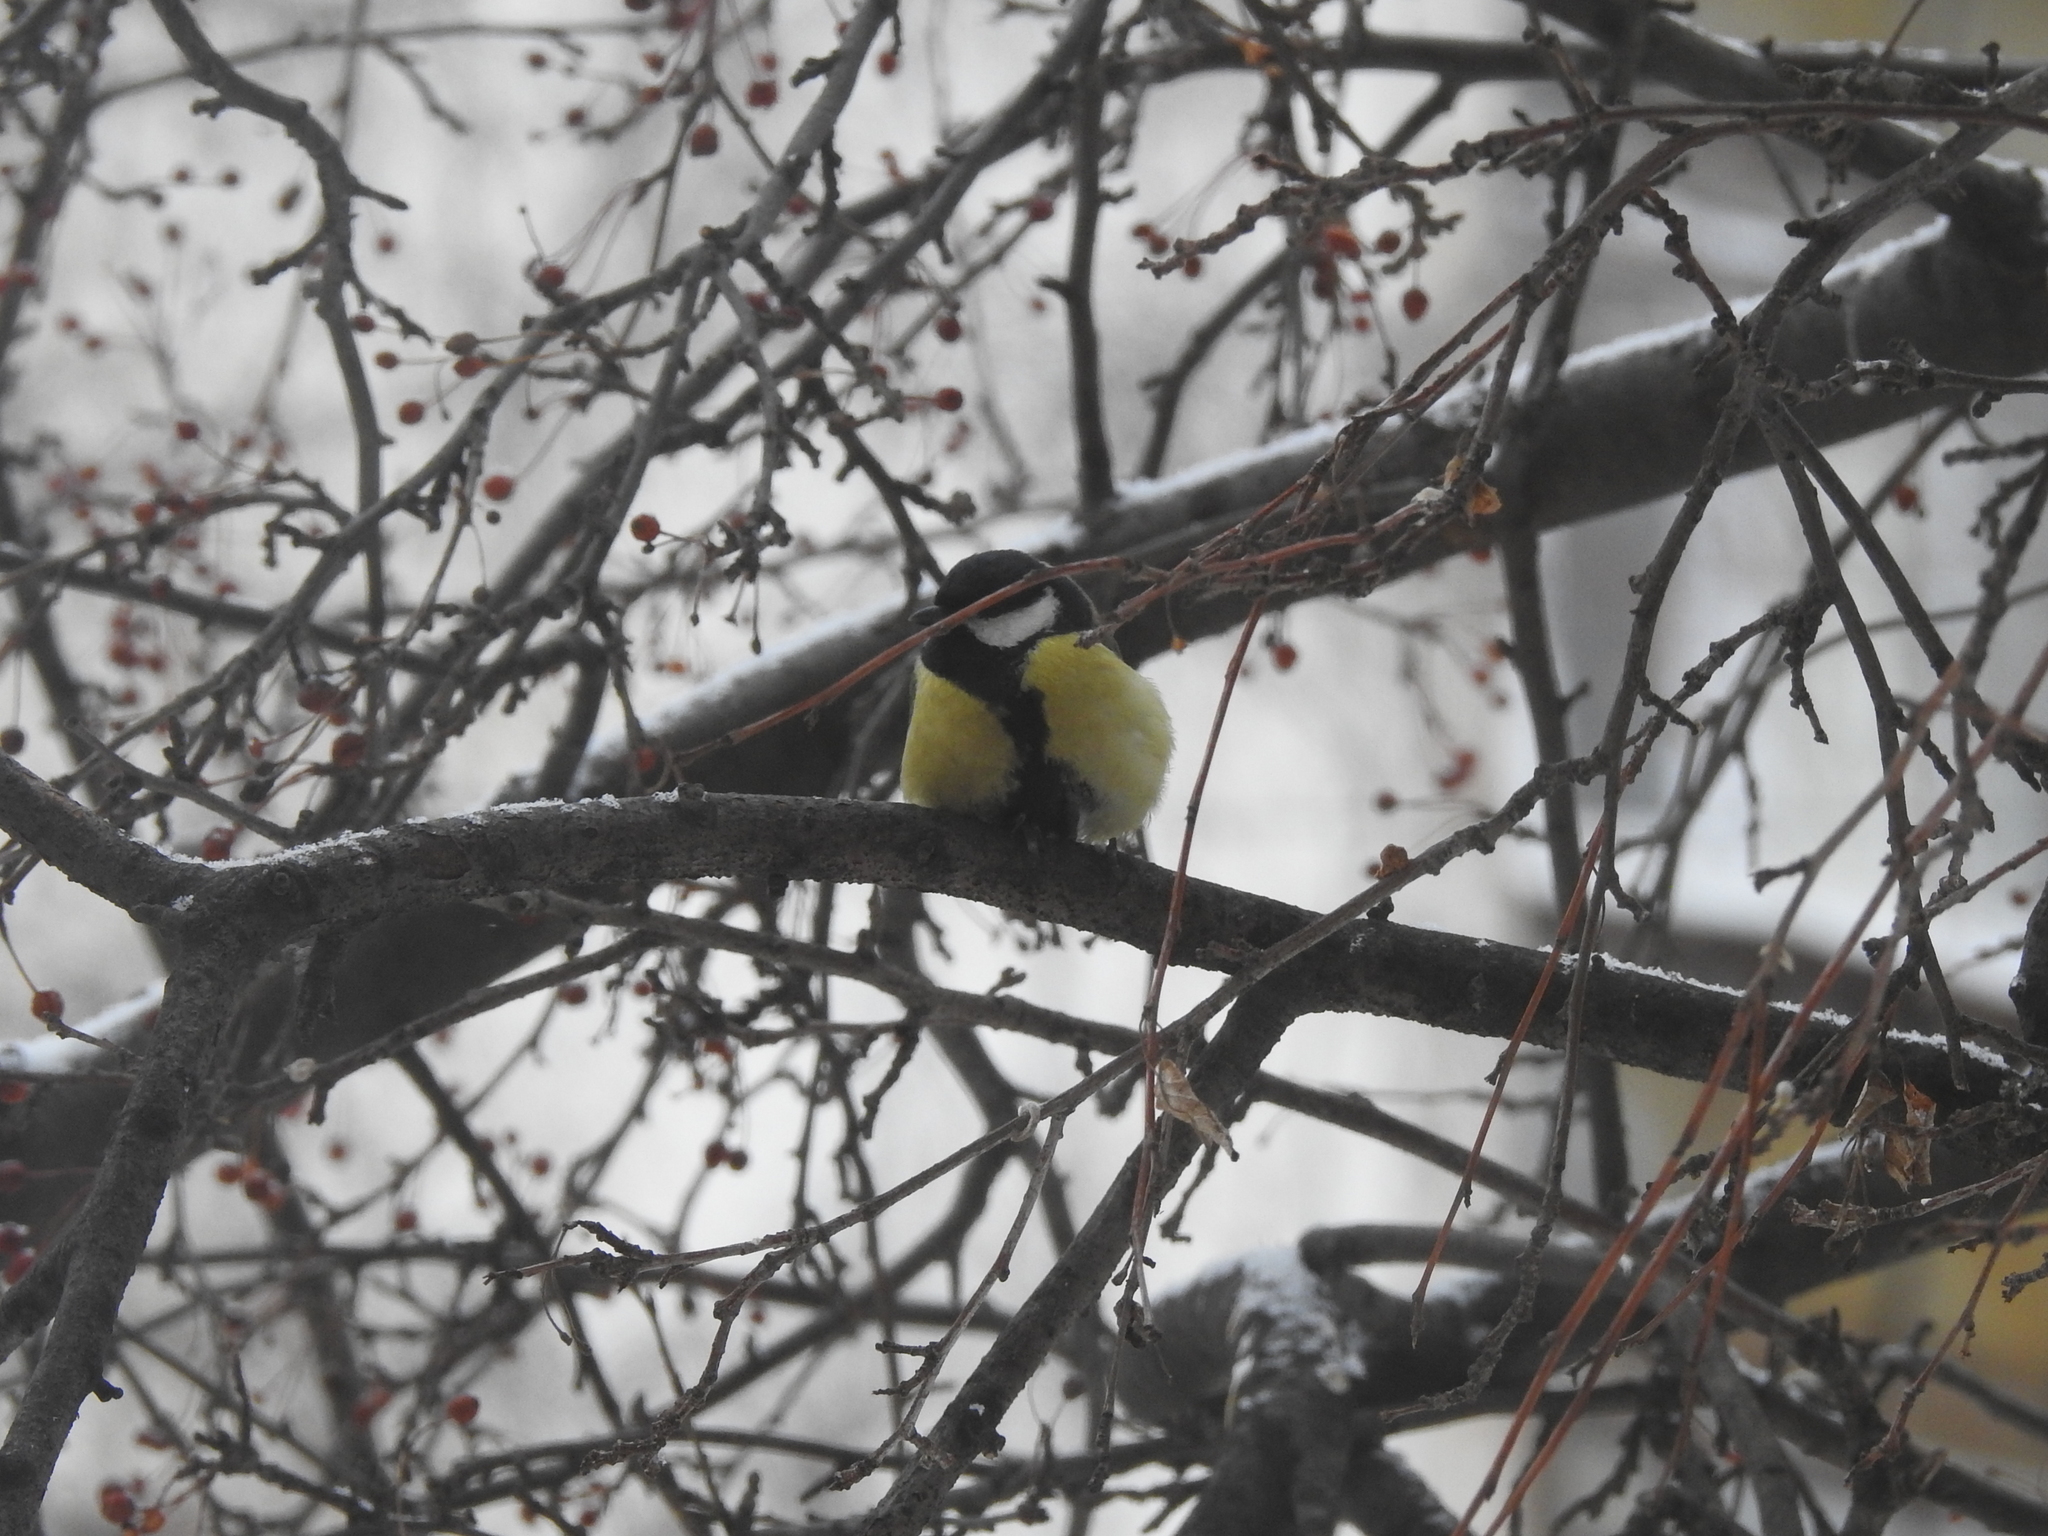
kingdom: Animalia
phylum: Chordata
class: Aves
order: Passeriformes
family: Paridae
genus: Parus
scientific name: Parus major
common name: Great tit
